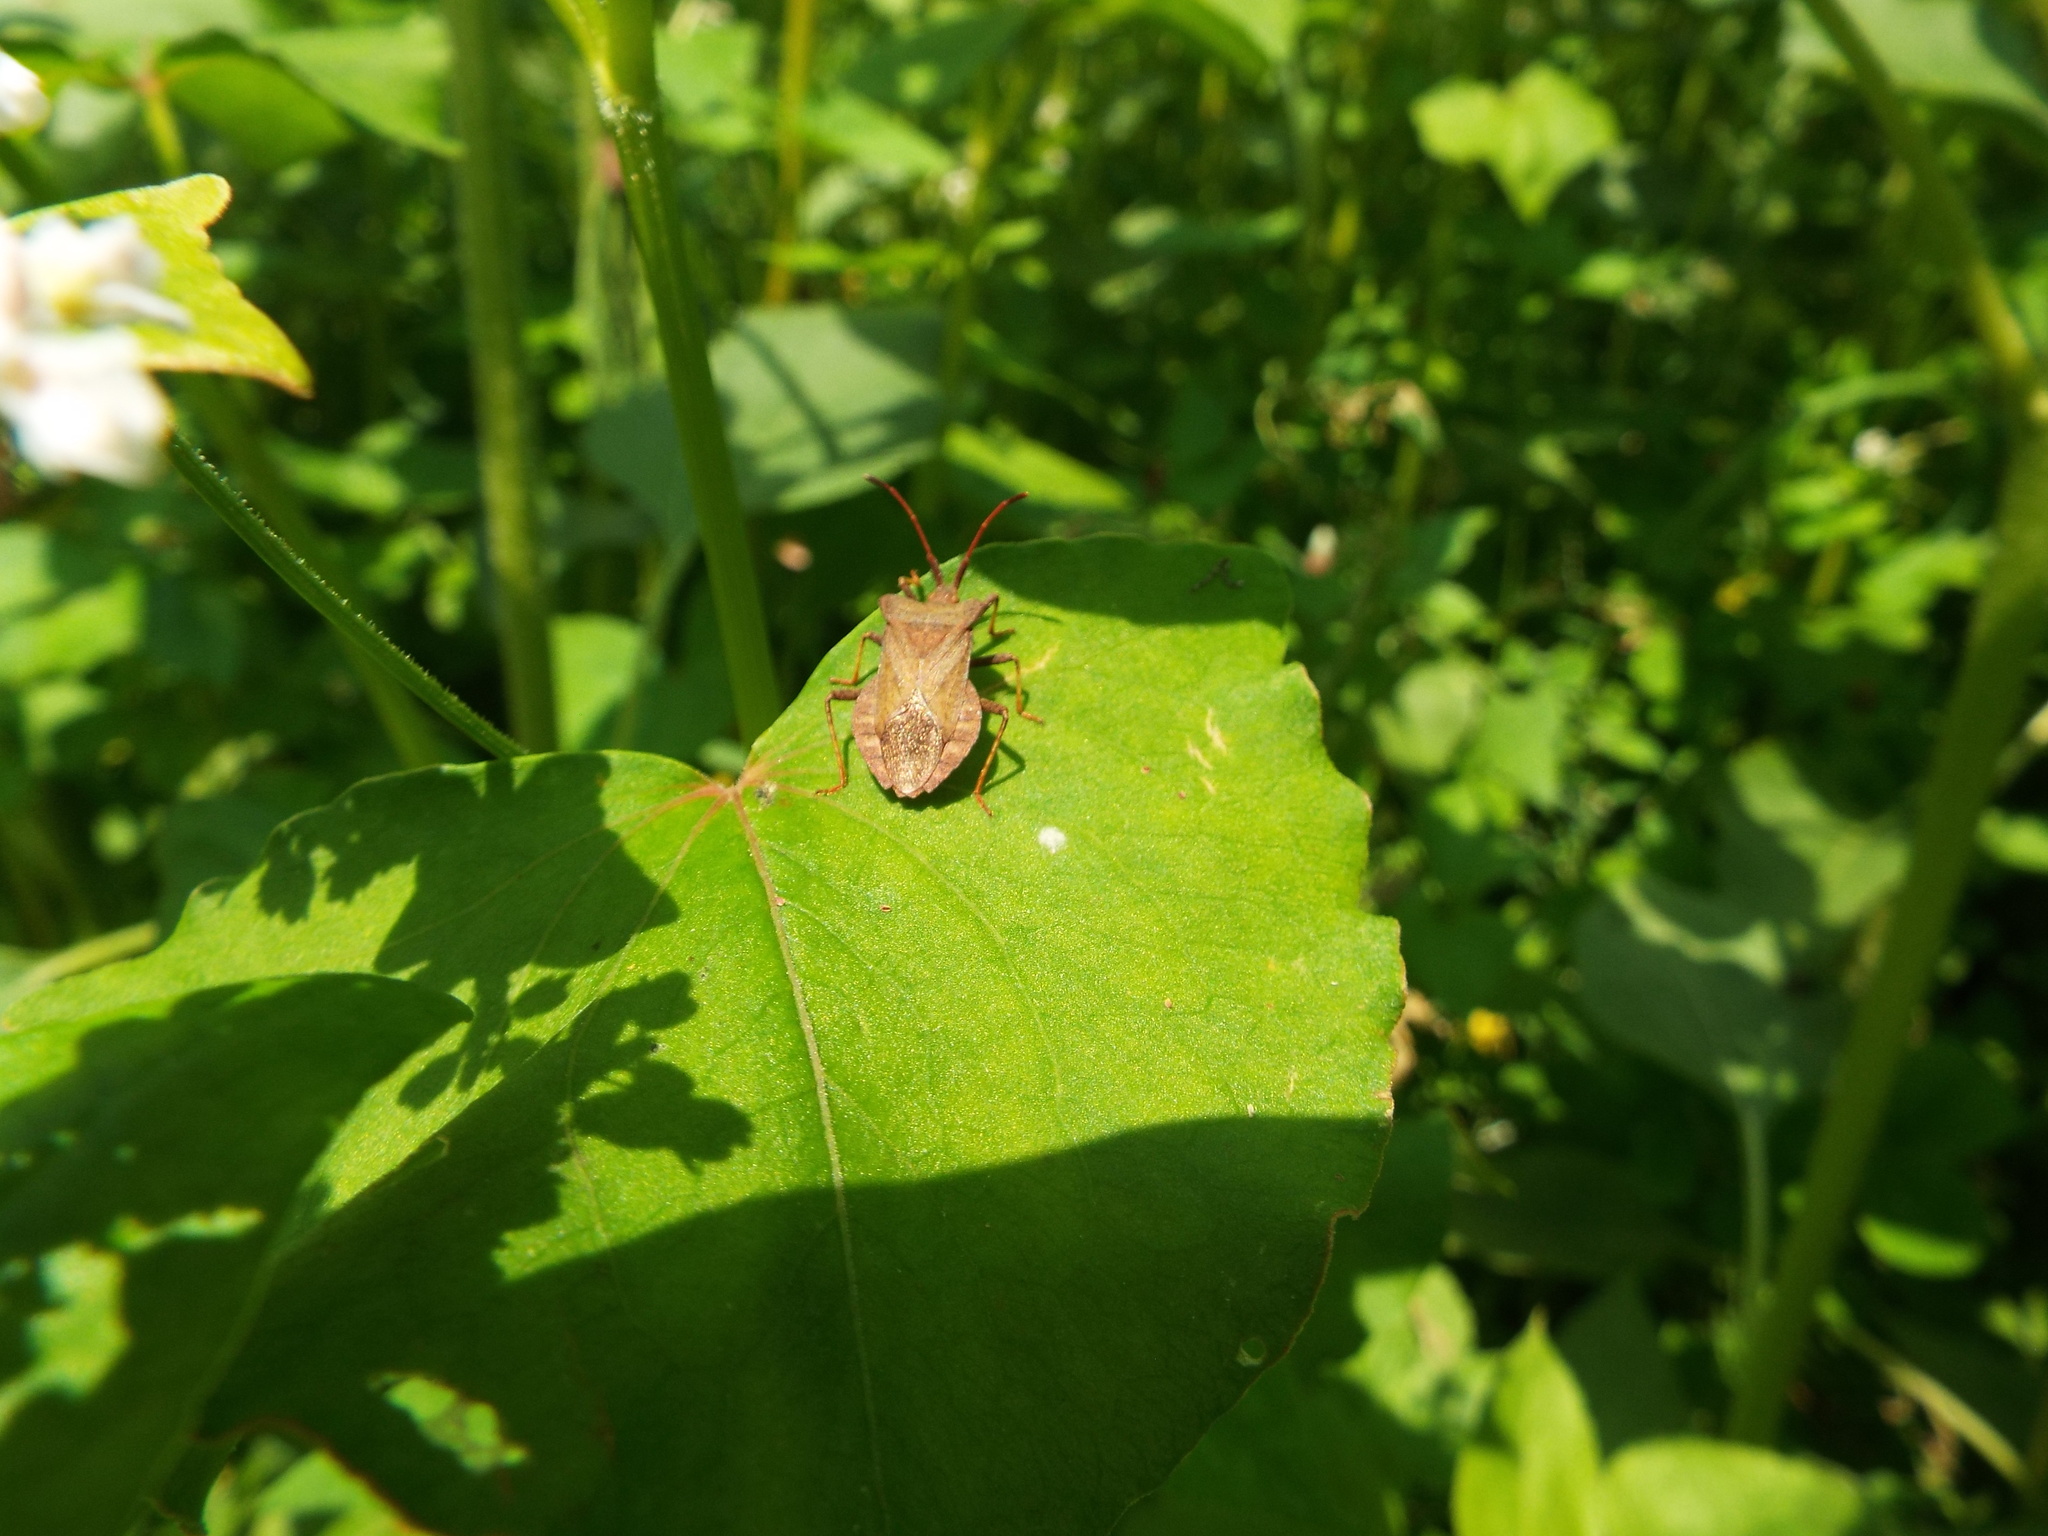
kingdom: Animalia
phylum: Arthropoda
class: Insecta
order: Hemiptera
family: Coreidae
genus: Coreus
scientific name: Coreus marginatus
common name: Dock bug
